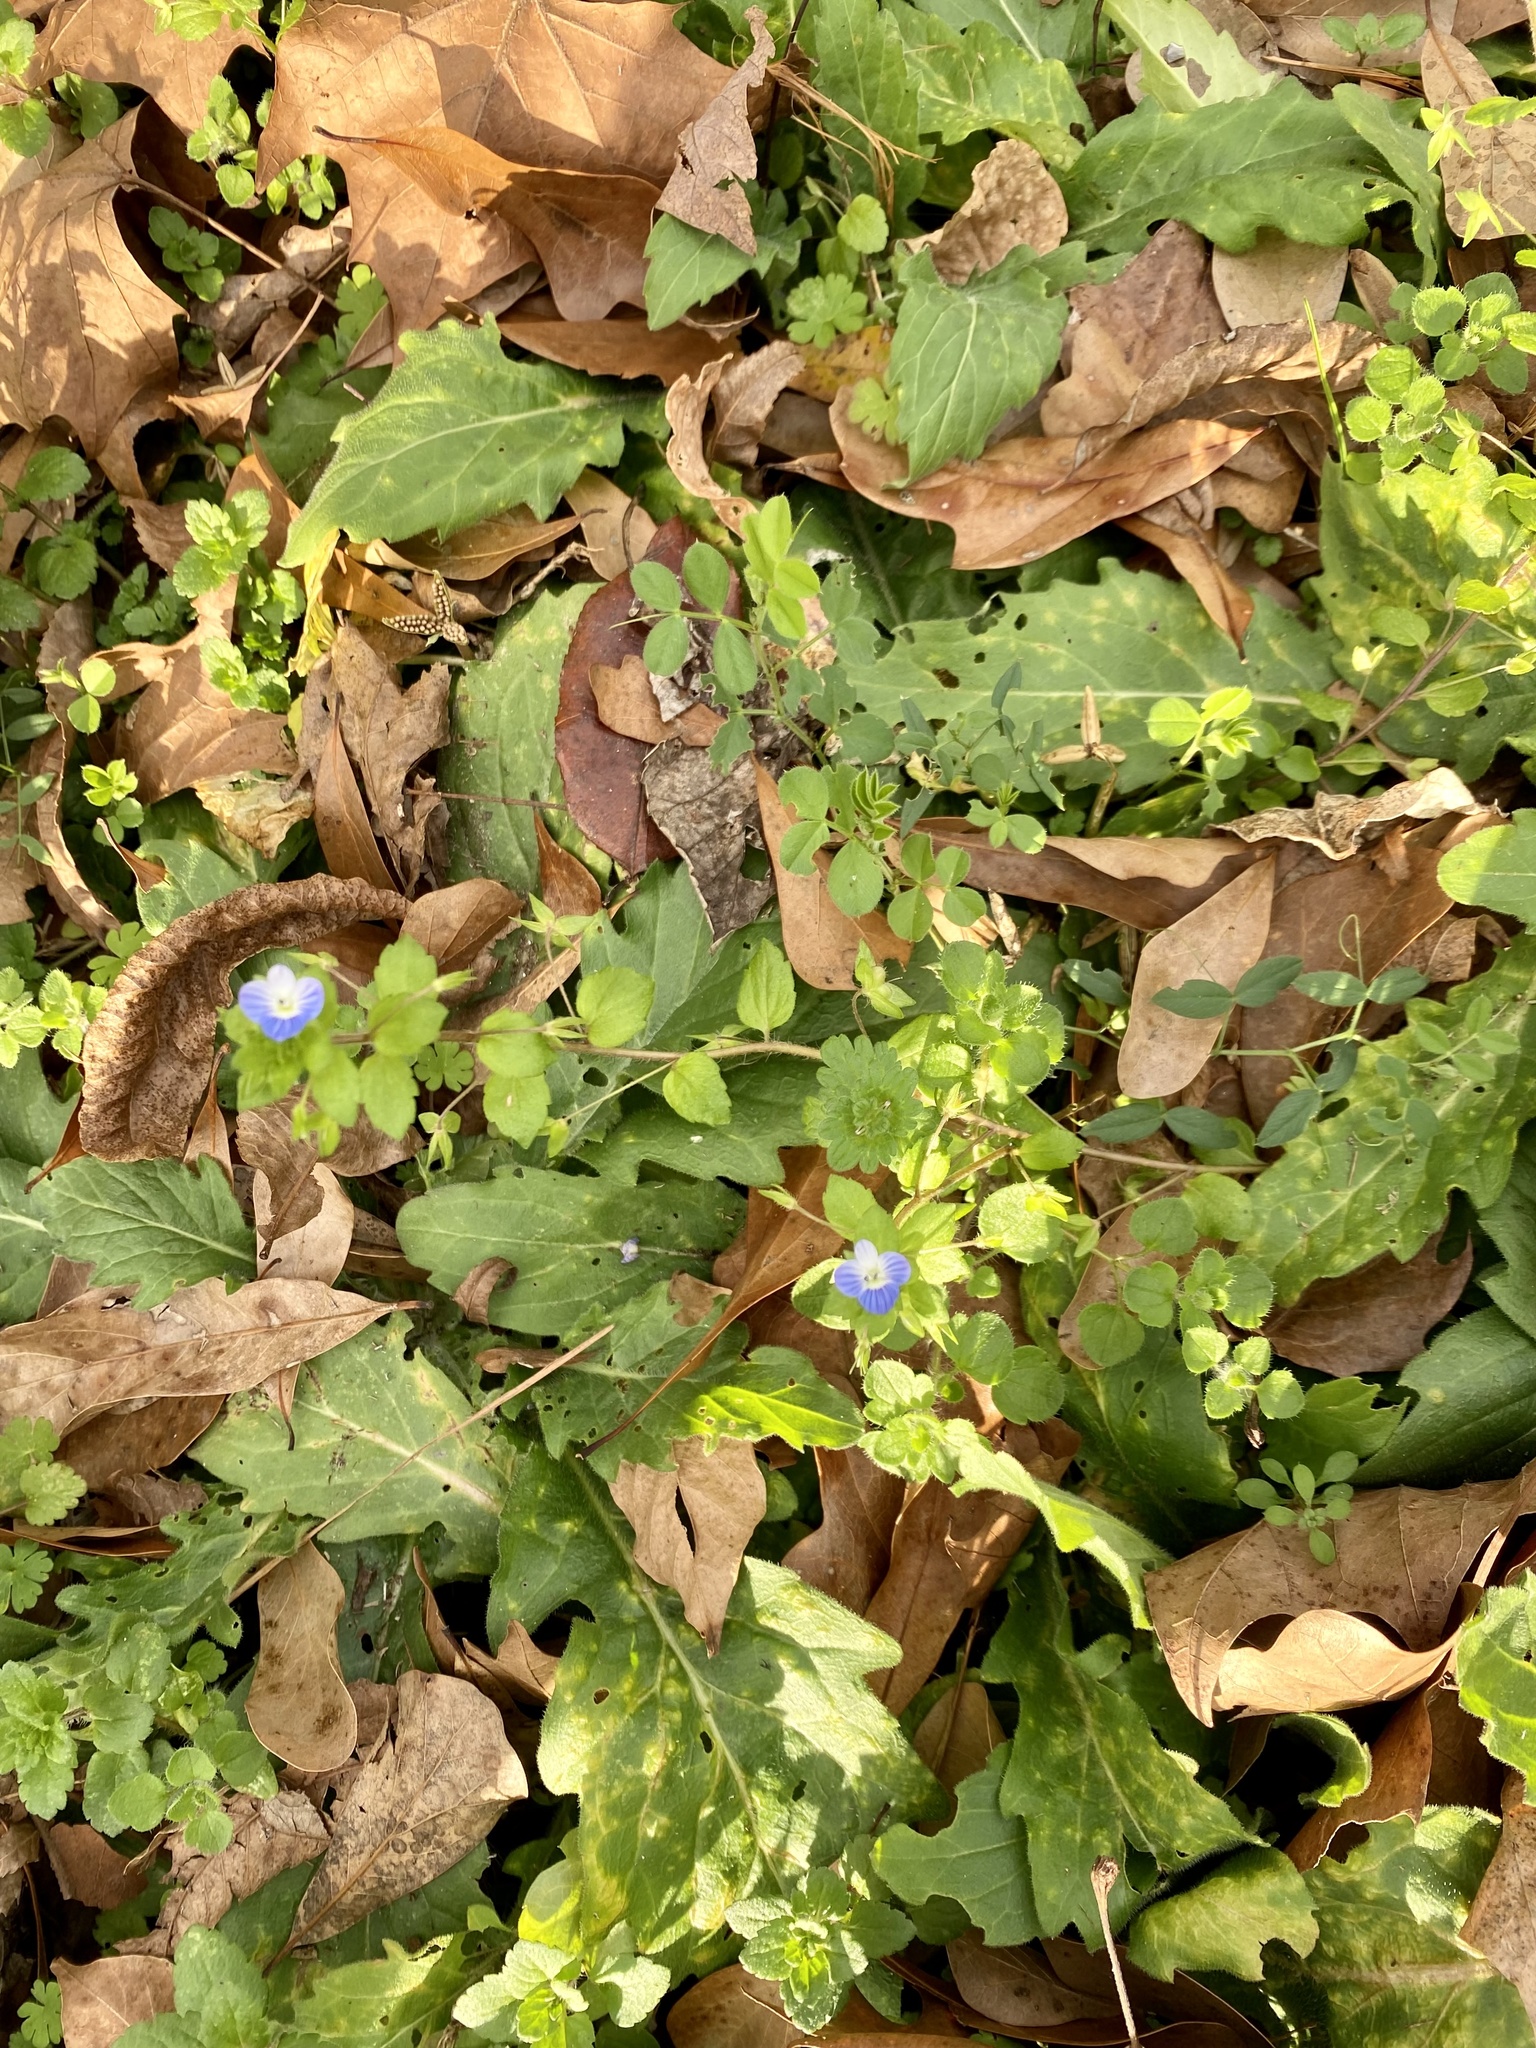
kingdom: Plantae
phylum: Tracheophyta
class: Magnoliopsida
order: Lamiales
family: Plantaginaceae
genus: Veronica
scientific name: Veronica persica
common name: Common field-speedwell
